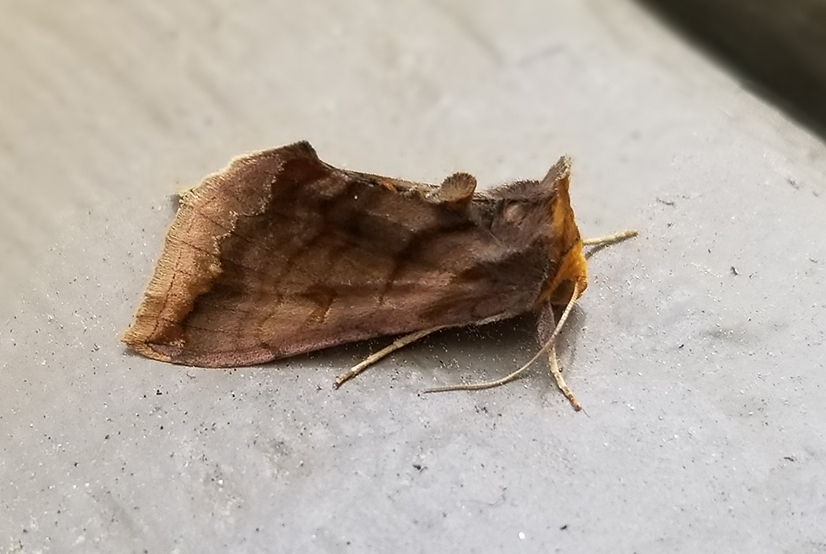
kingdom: Animalia
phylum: Arthropoda
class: Insecta
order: Lepidoptera
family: Noctuidae
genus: Allagrapha
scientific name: Allagrapha aerea
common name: Unspotted looper moth
